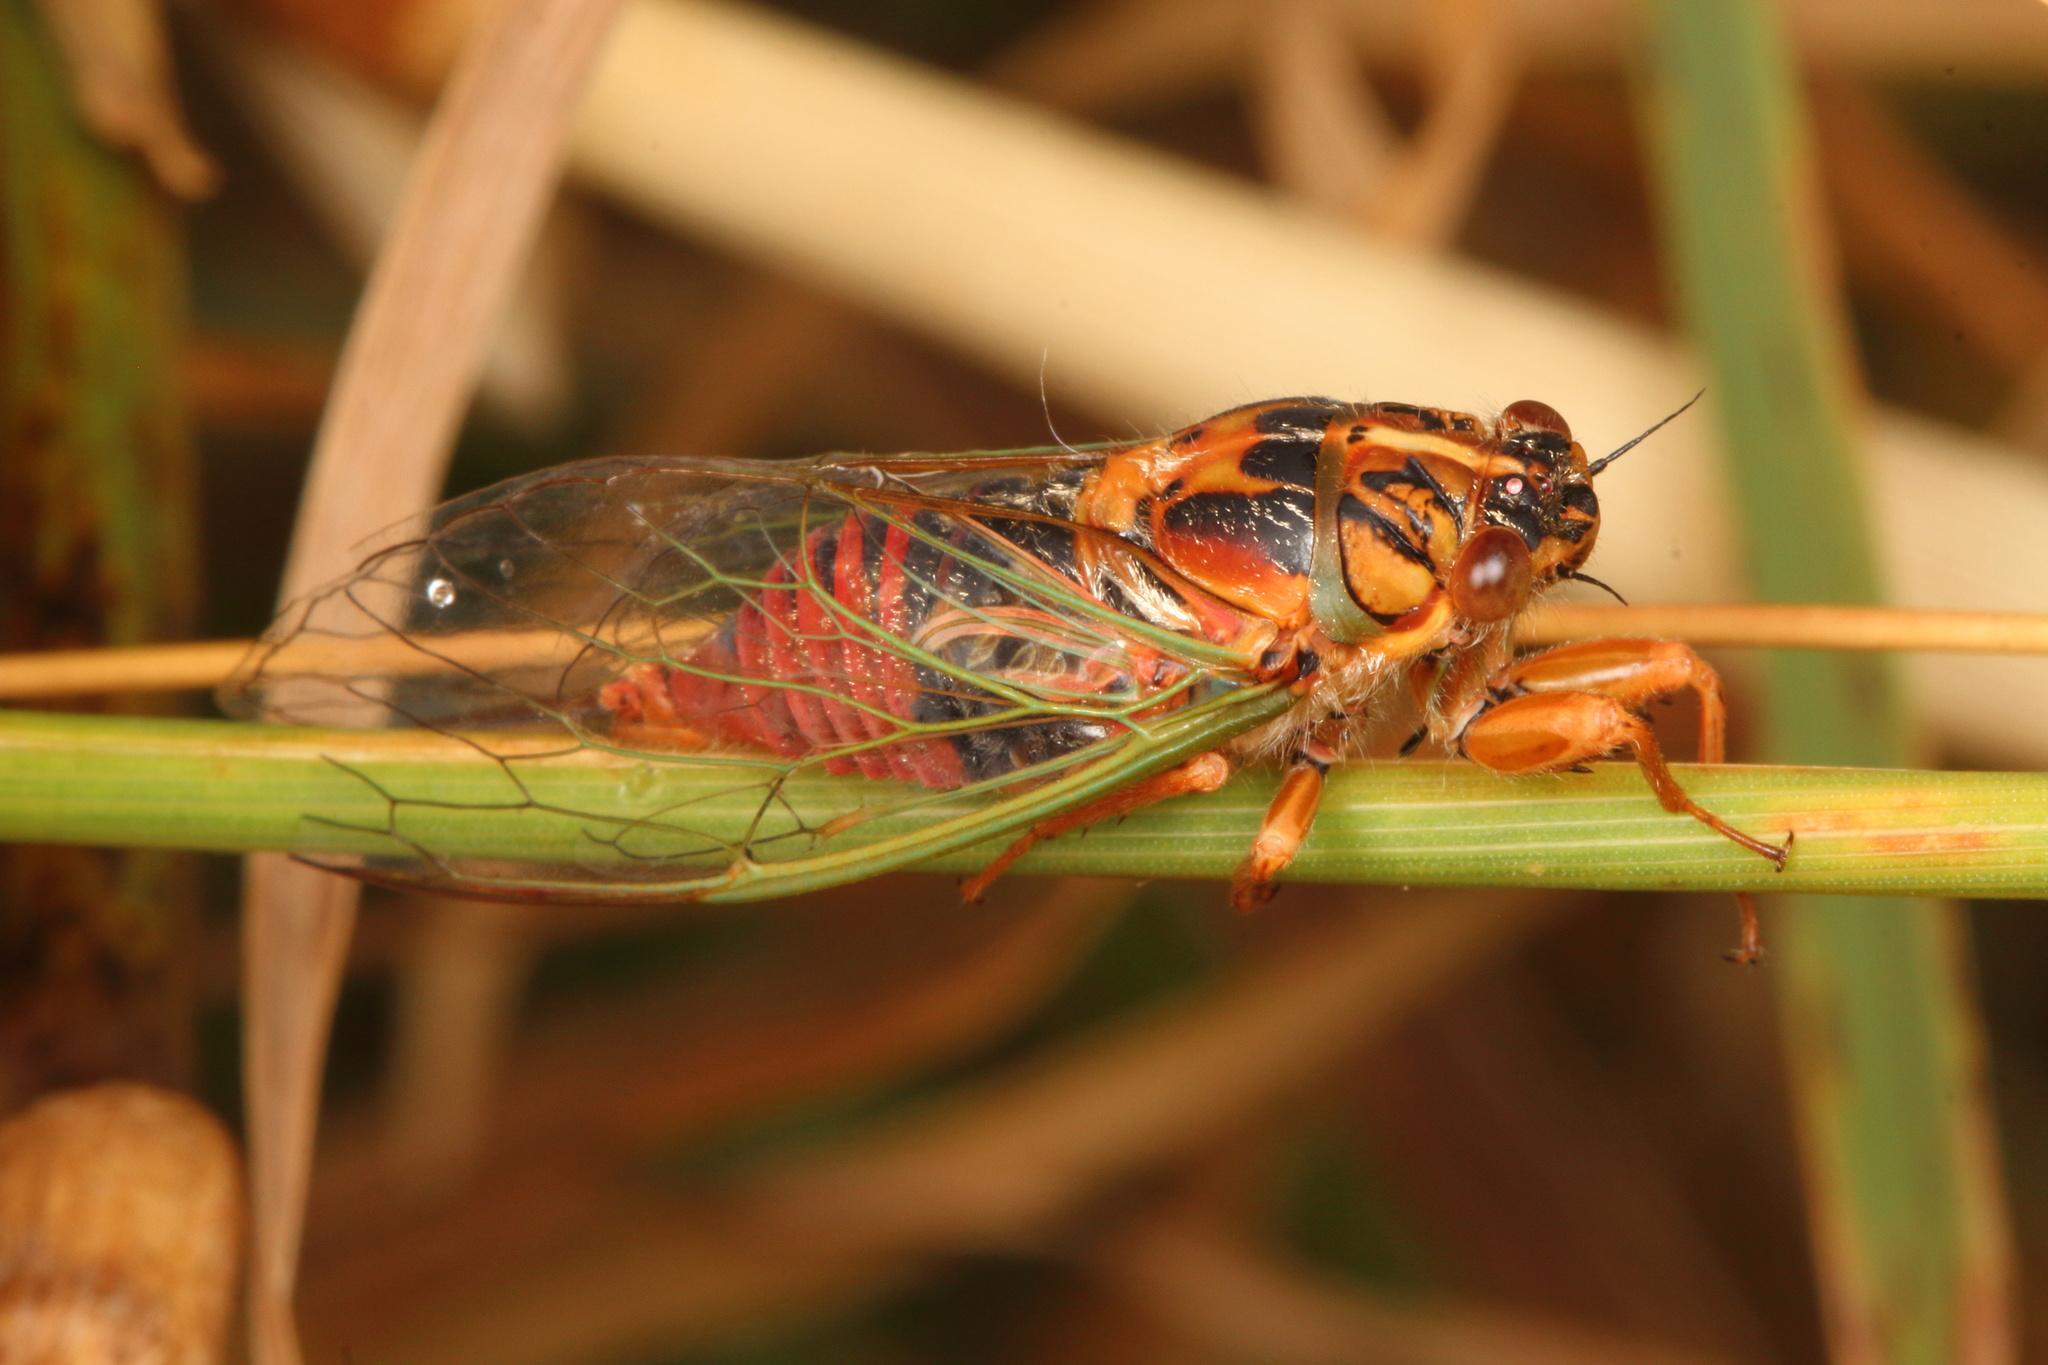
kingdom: Animalia
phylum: Arthropoda
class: Insecta
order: Hemiptera
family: Cicadidae
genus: Rhodopsalta
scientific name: Rhodopsalta cruentata
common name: Blood redtail cicada
